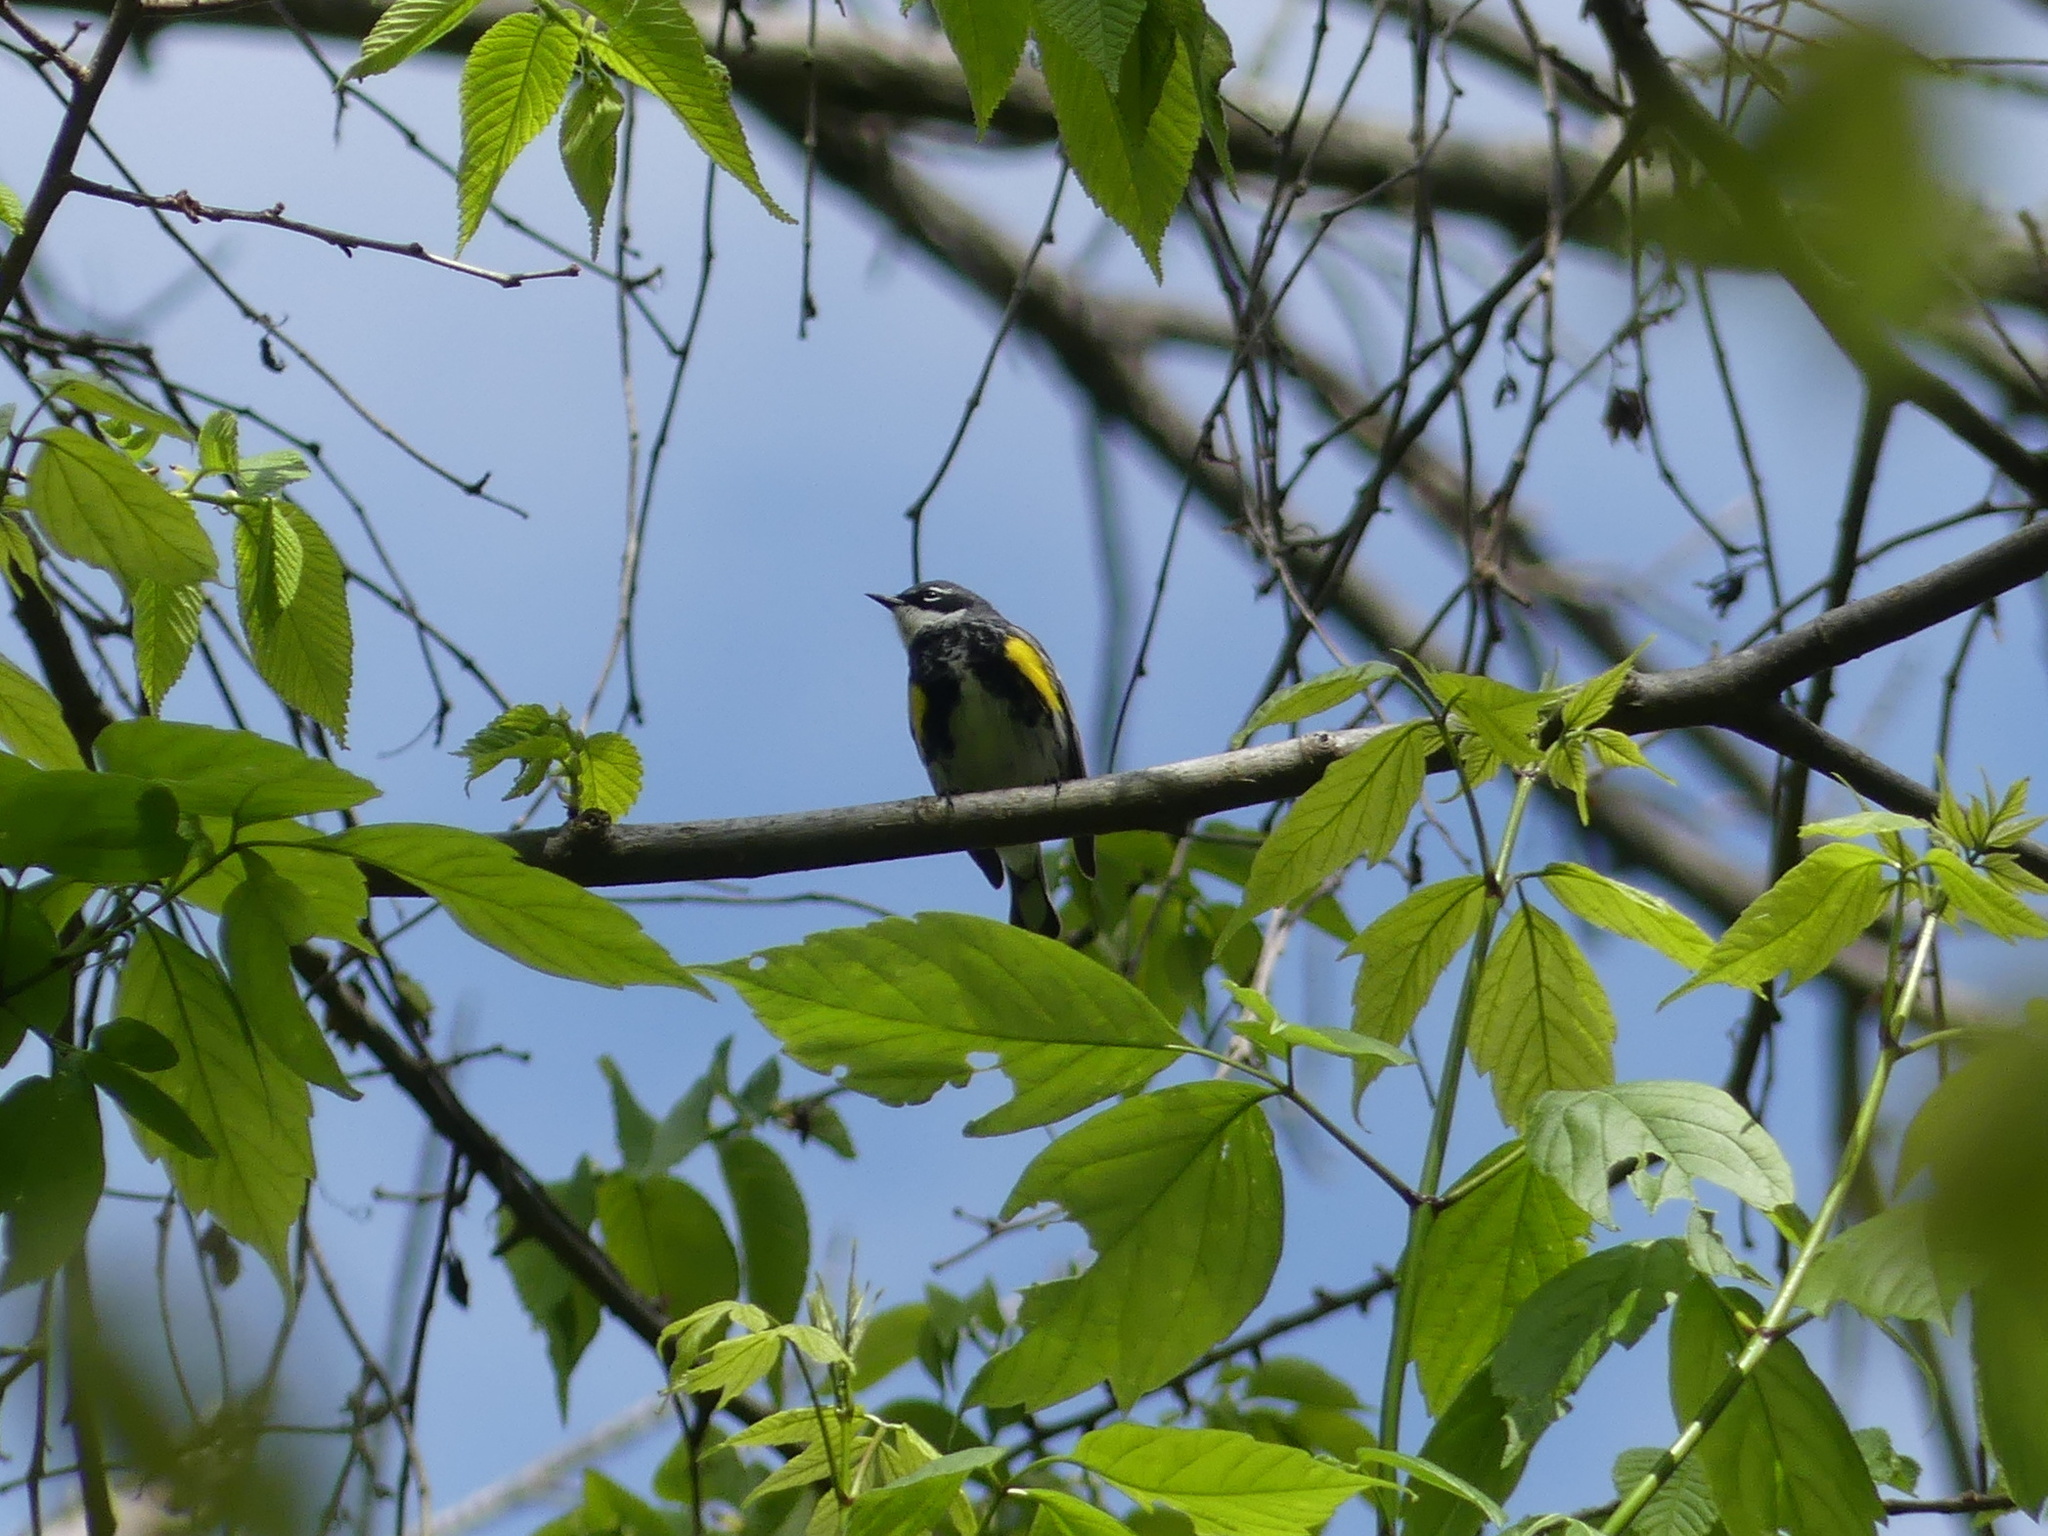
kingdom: Animalia
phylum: Chordata
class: Aves
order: Passeriformes
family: Parulidae
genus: Setophaga
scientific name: Setophaga coronata
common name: Myrtle warbler
